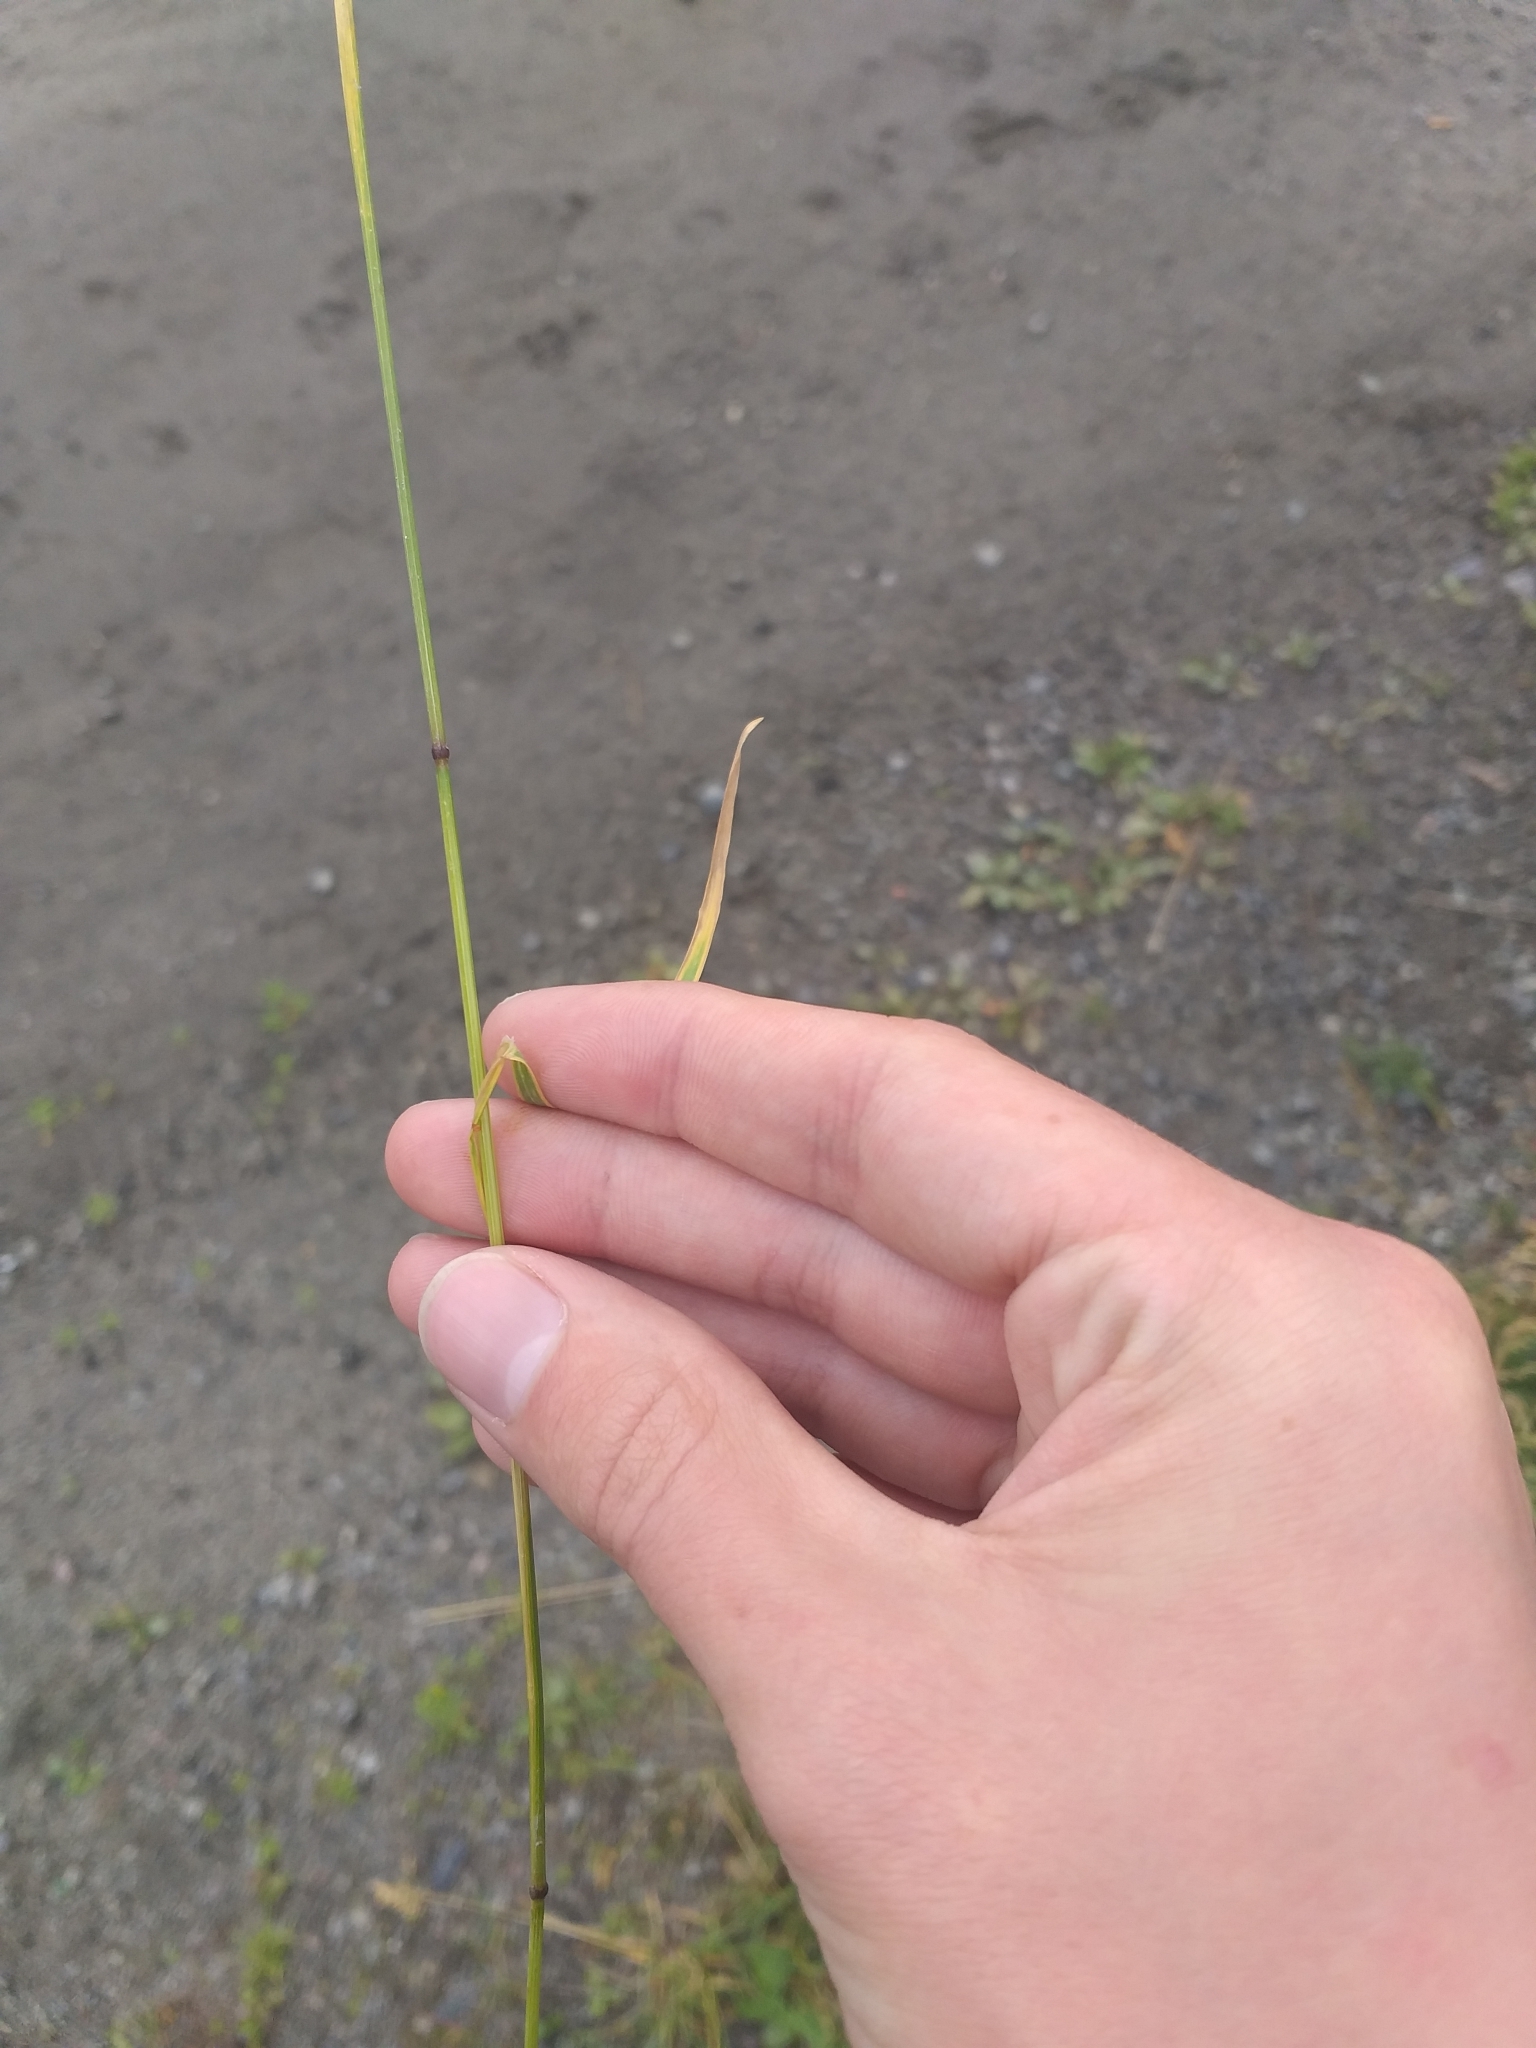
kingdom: Plantae
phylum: Tracheophyta
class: Liliopsida
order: Poales
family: Poaceae
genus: Poa
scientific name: Poa pratensis
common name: Kentucky bluegrass
